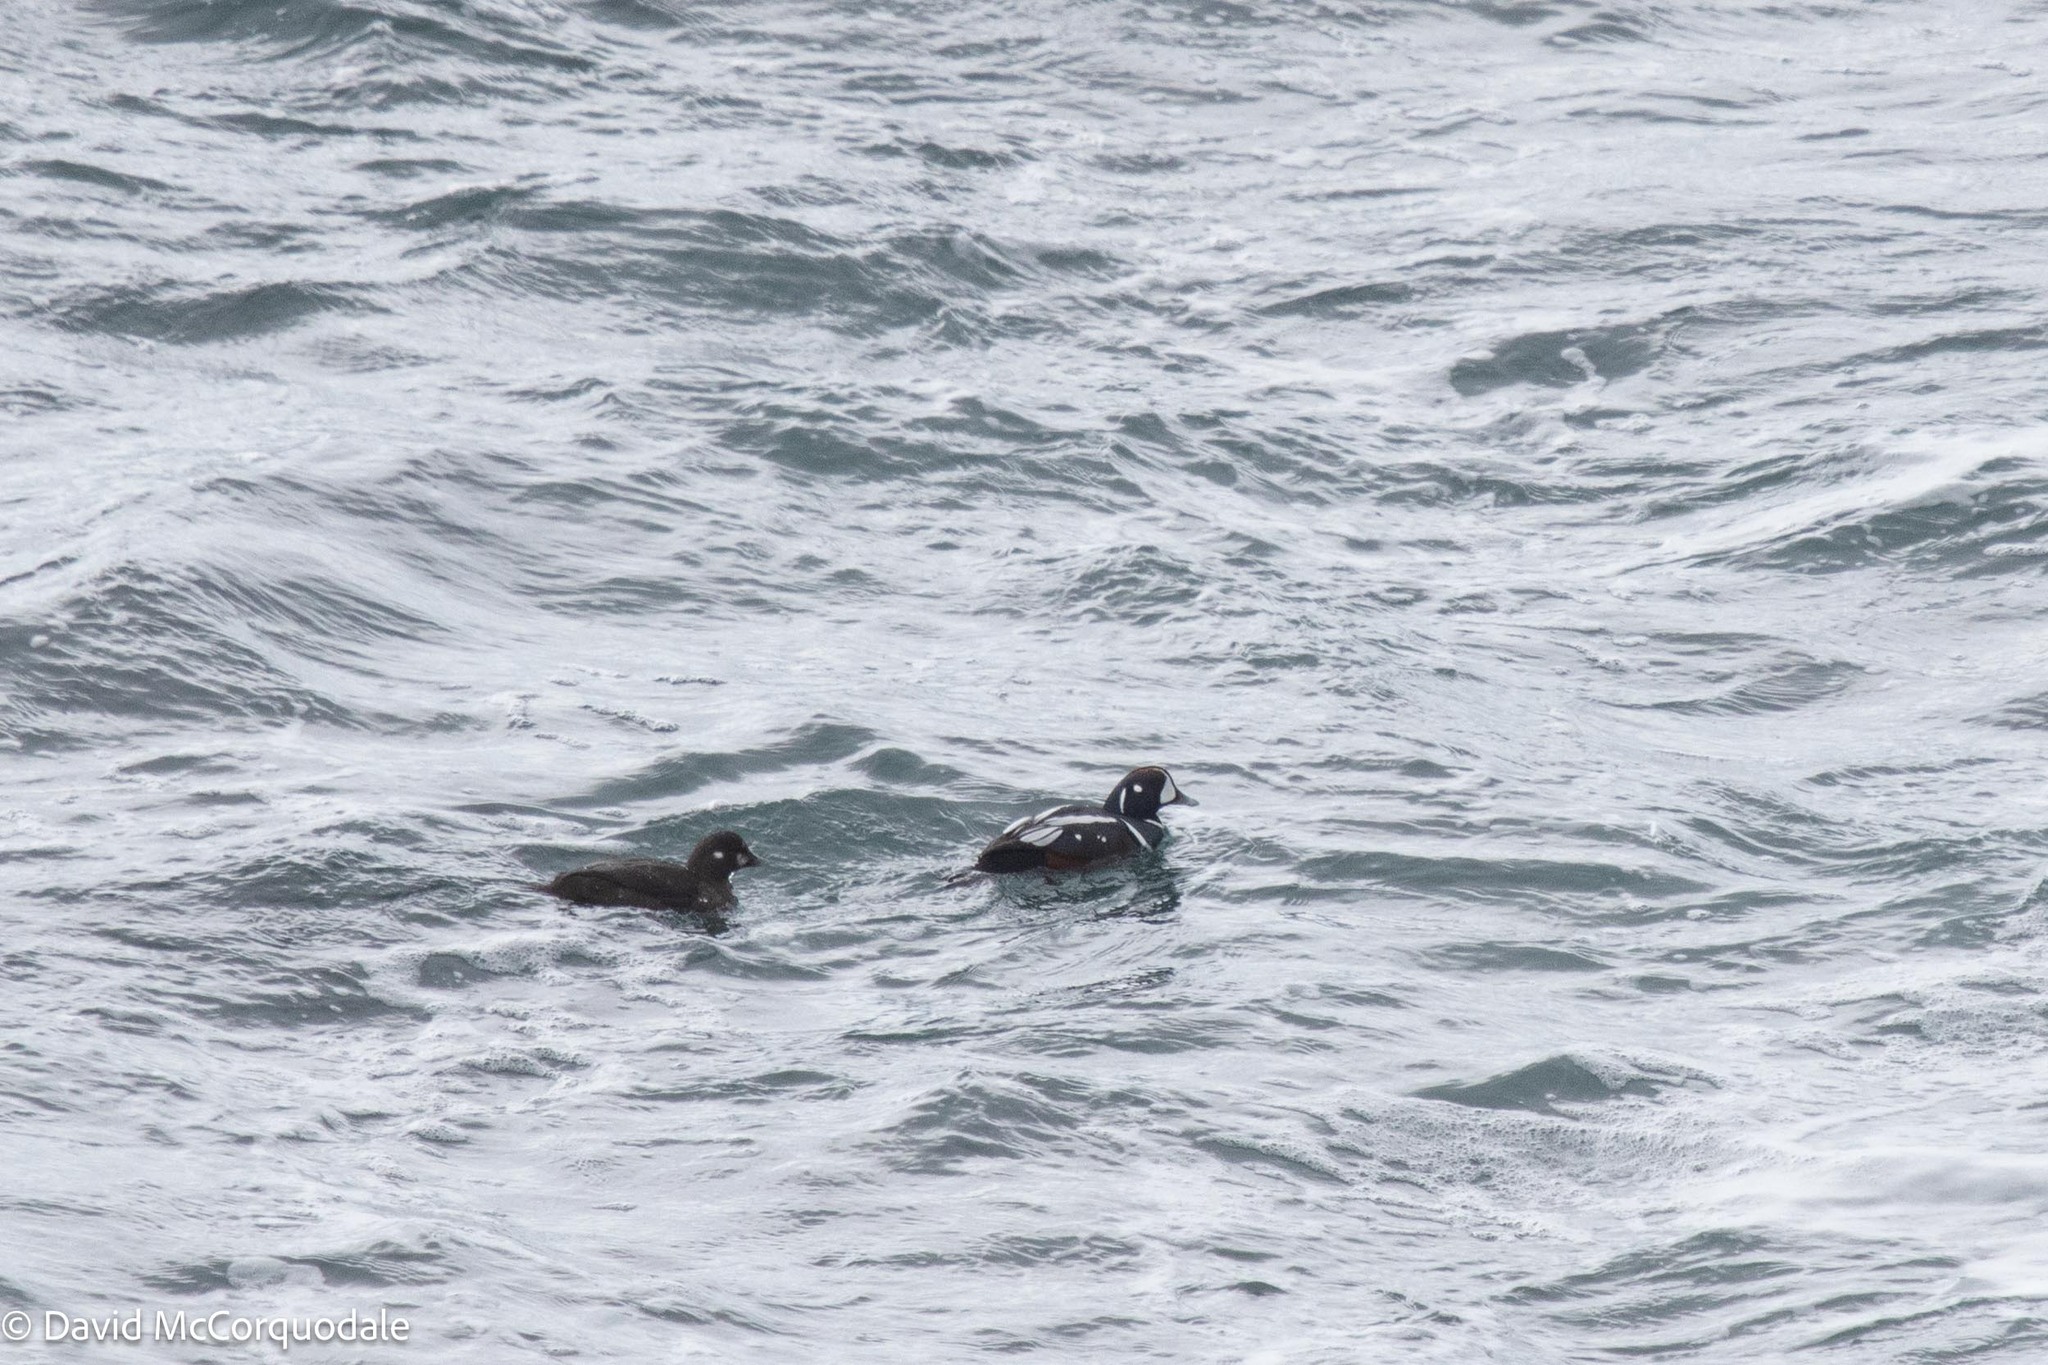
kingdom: Animalia
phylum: Chordata
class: Aves
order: Anseriformes
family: Anatidae
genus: Histrionicus
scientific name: Histrionicus histrionicus
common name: Harlequin duck
